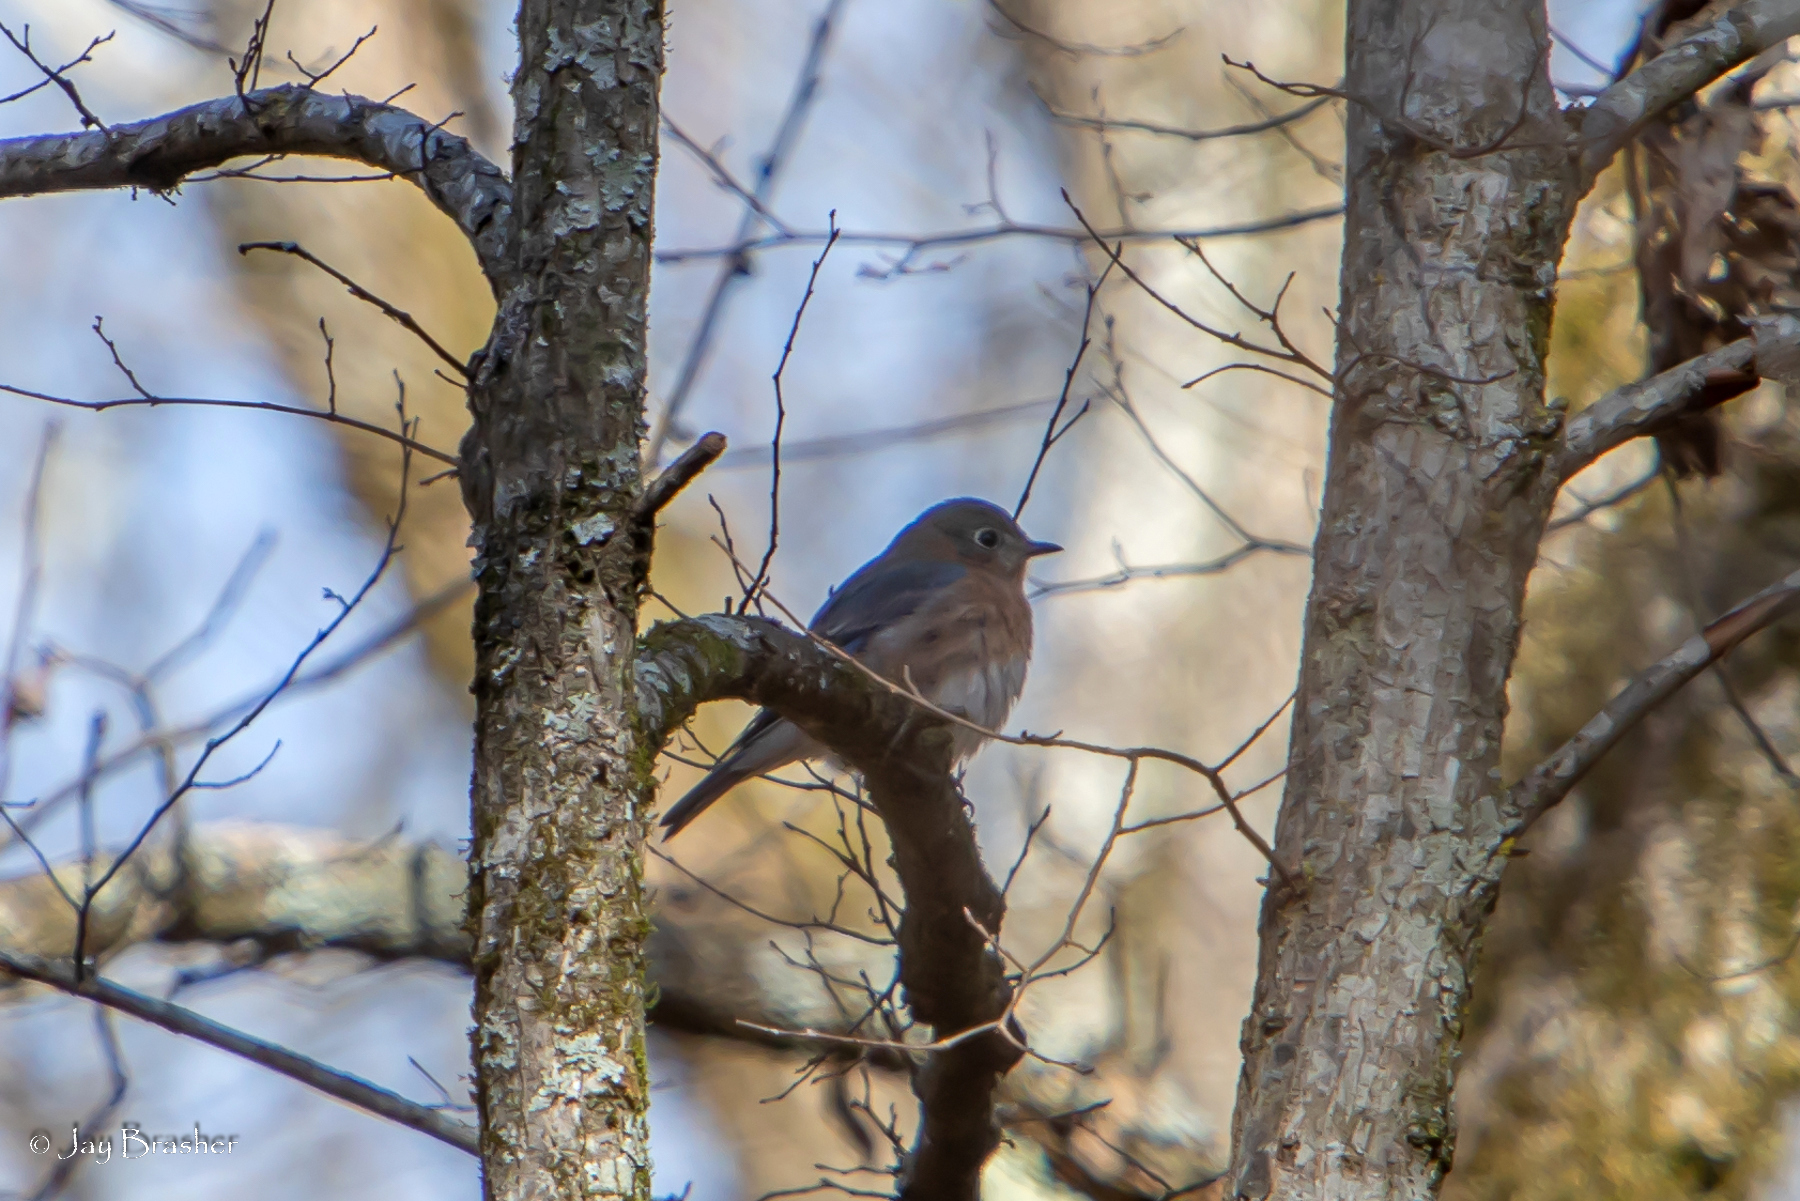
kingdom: Animalia
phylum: Chordata
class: Aves
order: Passeriformes
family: Turdidae
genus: Sialia
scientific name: Sialia sialis
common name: Eastern bluebird
